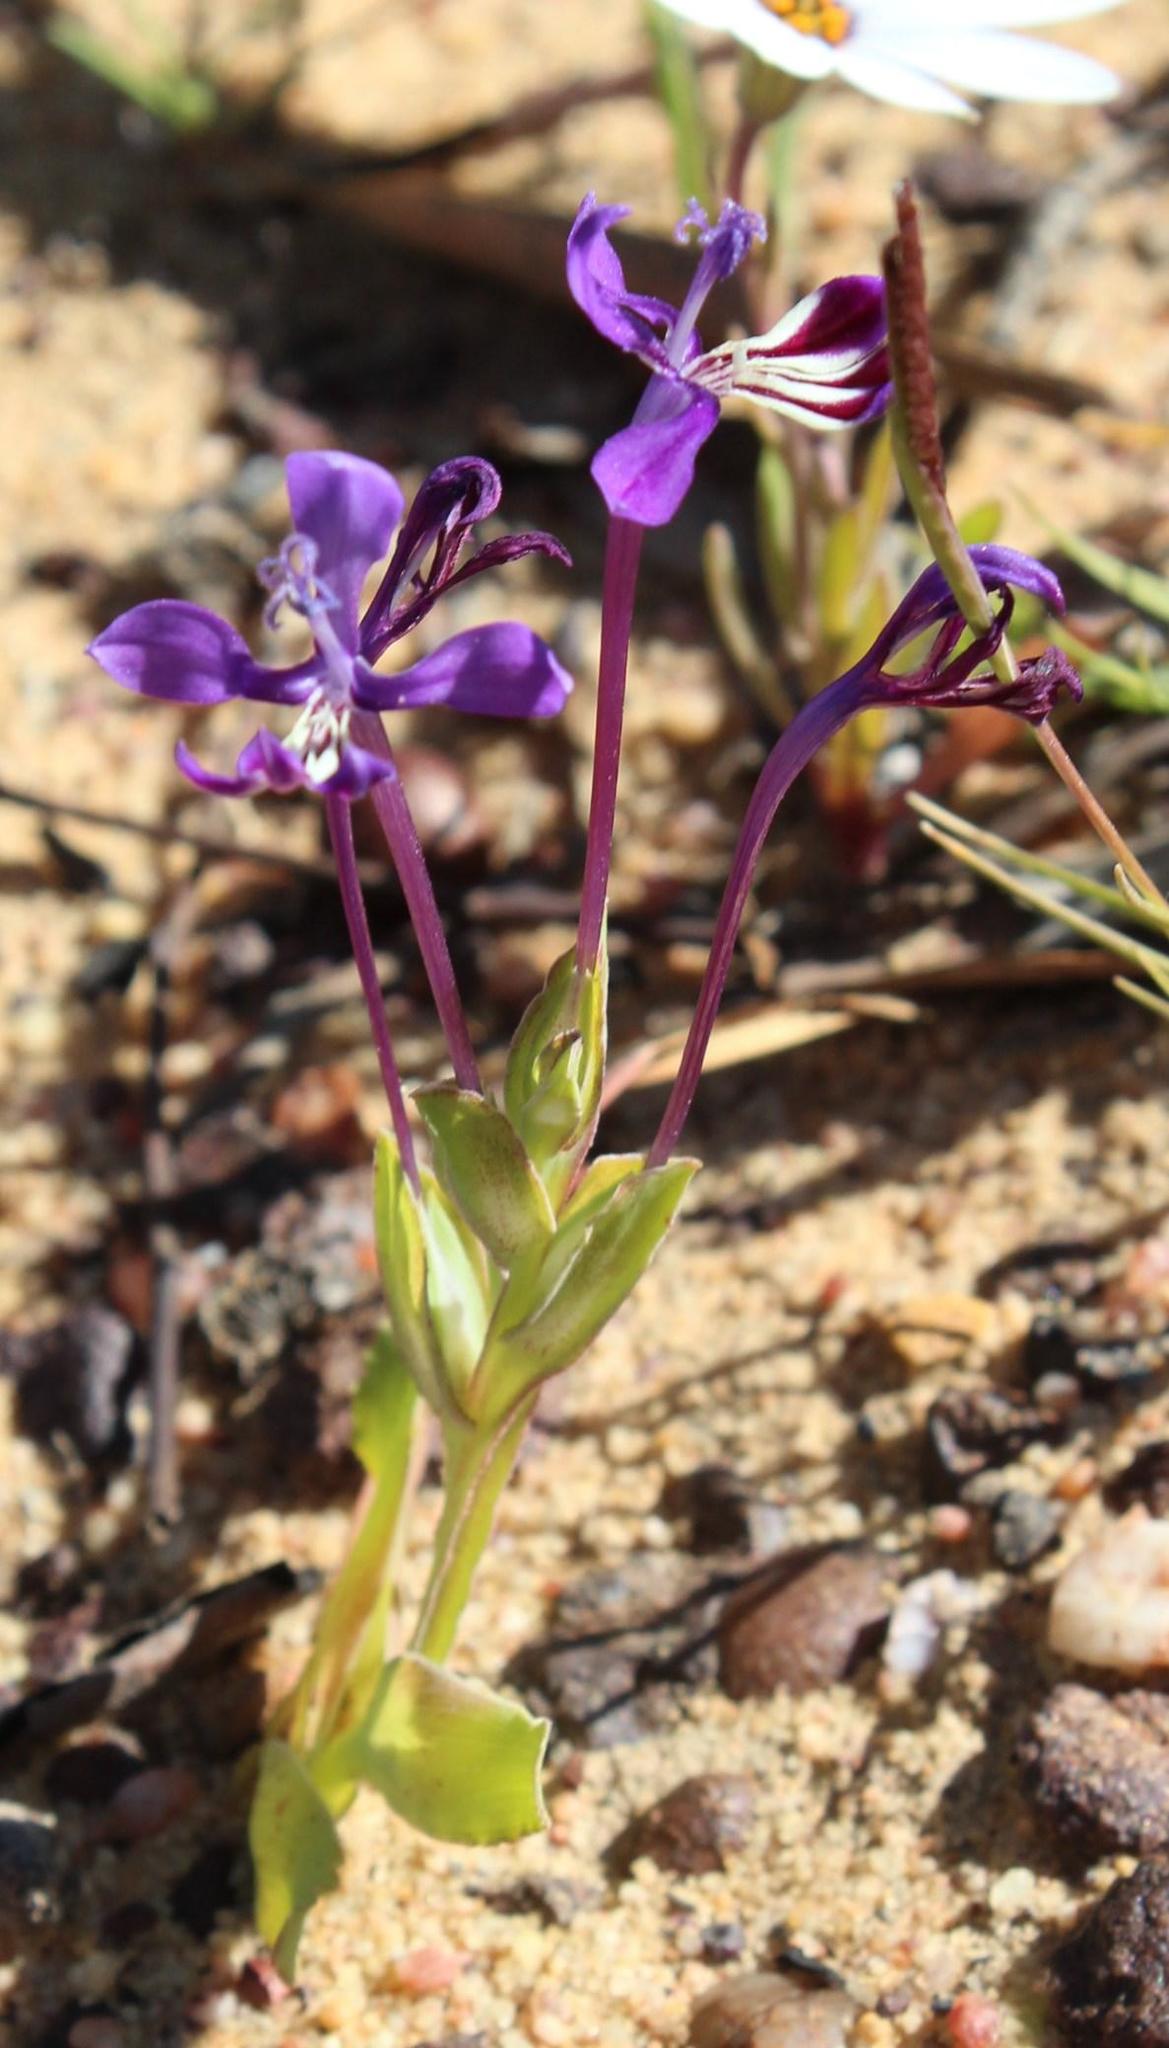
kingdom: Plantae
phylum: Tracheophyta
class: Liliopsida
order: Asparagales
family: Iridaceae
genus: Lapeirousia
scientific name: Lapeirousia jacquinii
